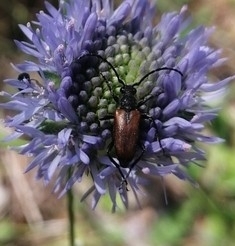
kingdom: Animalia
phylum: Arthropoda
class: Insecta
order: Coleoptera
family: Cerambycidae
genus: Pseudovadonia
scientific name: Pseudovadonia livida
